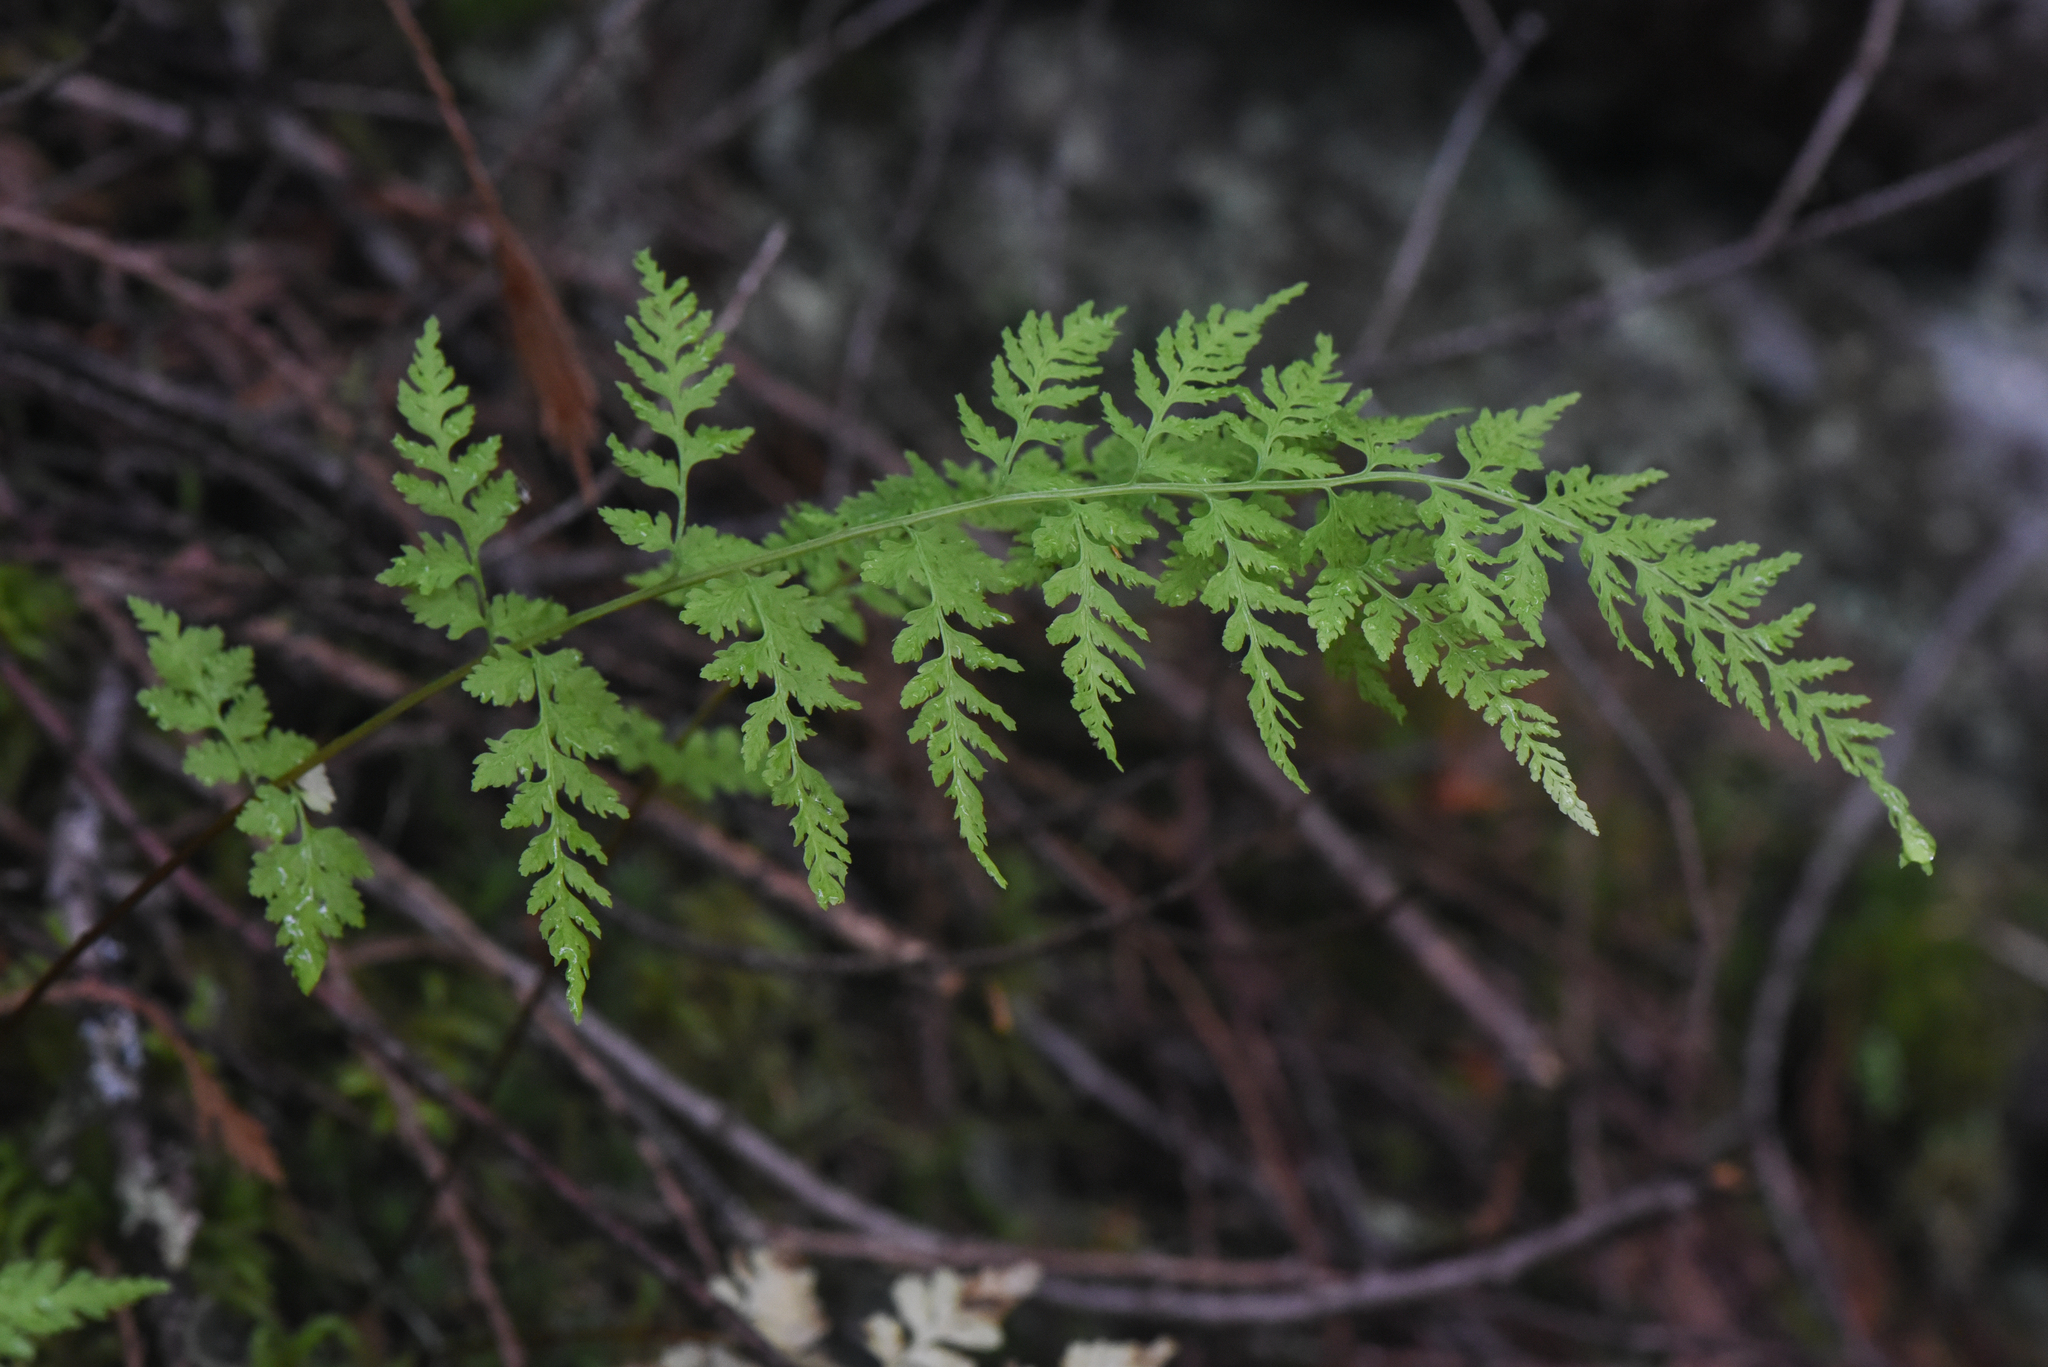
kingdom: Plantae
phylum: Tracheophyta
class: Polypodiopsida
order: Polypodiales
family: Cystopteridaceae
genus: Cystopteris
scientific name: Cystopteris fragilis
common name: Brittle bladder fern
